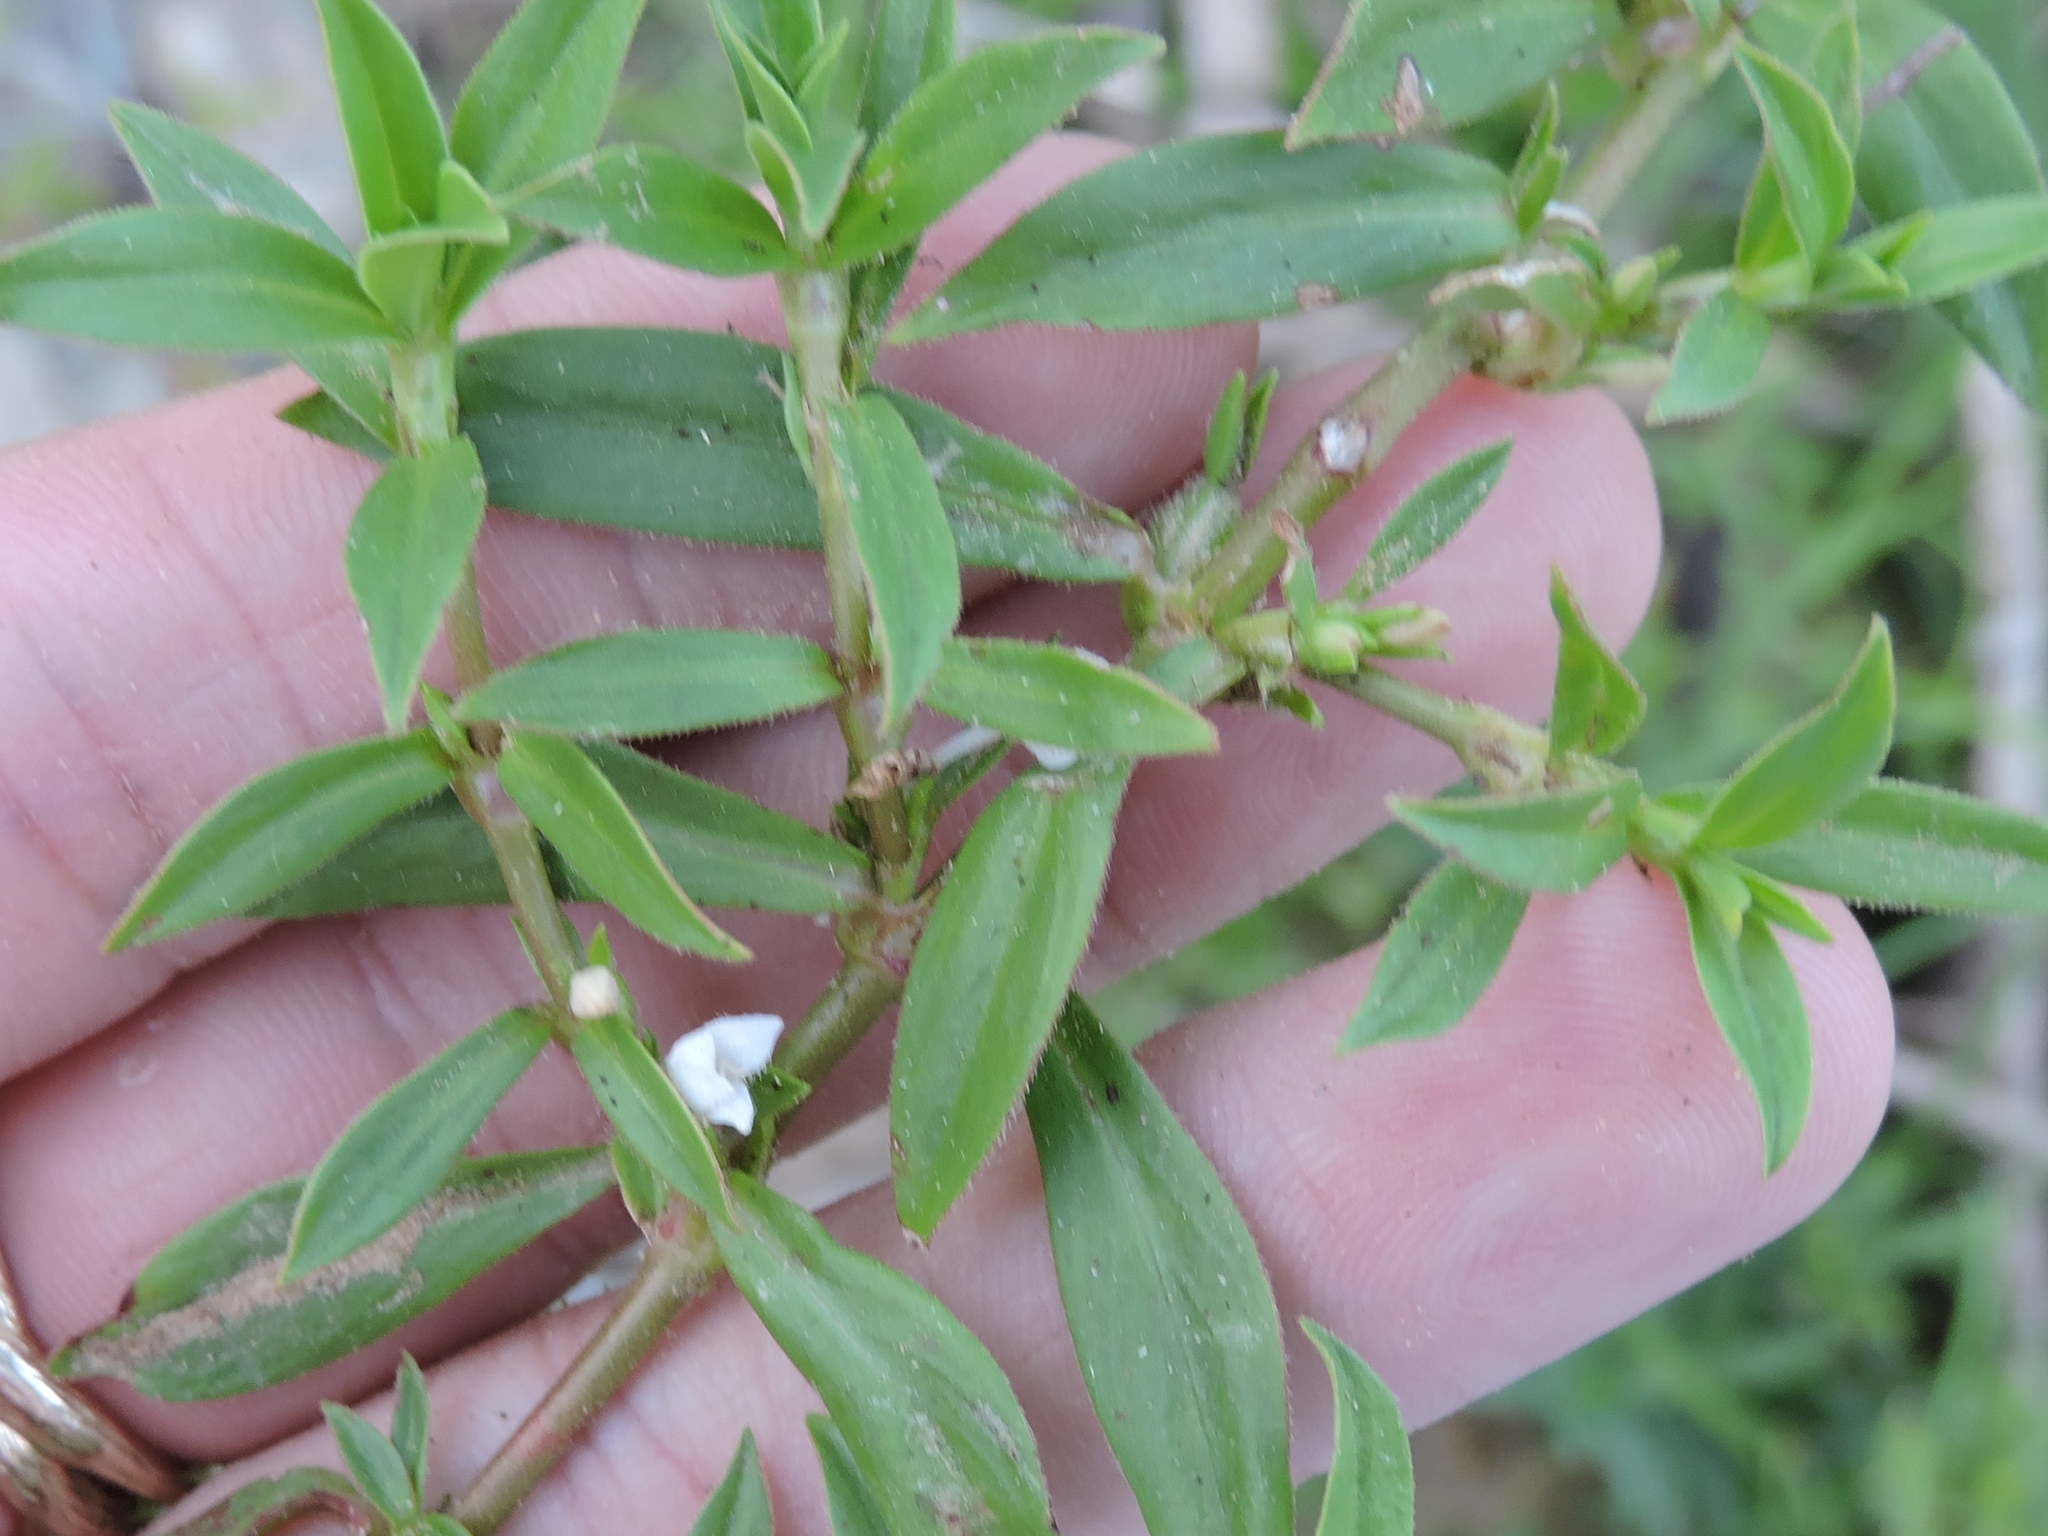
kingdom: Plantae
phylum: Tracheophyta
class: Magnoliopsida
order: Gentianales
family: Rubiaceae
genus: Diodia
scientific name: Diodia virginiana
